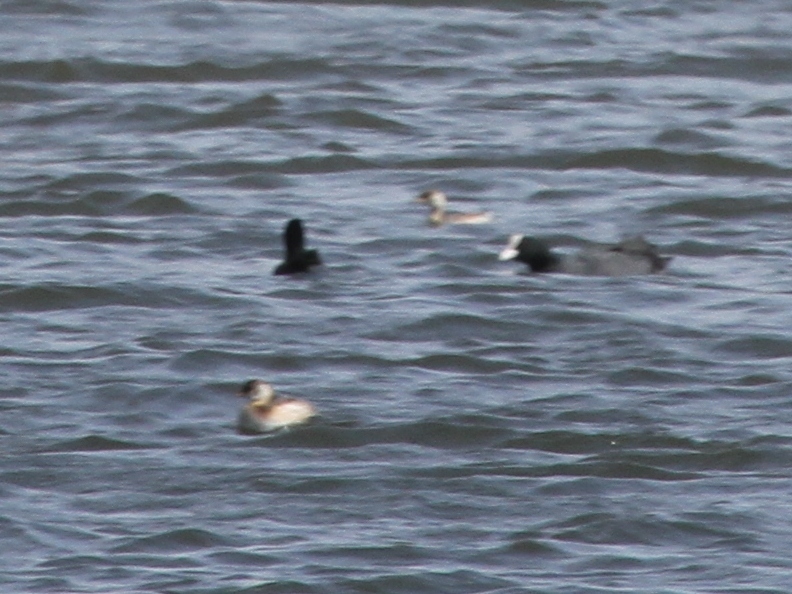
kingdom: Animalia
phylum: Chordata
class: Aves
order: Podicipediformes
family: Podicipedidae
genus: Tachybaptus
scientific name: Tachybaptus ruficollis
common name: Little grebe
